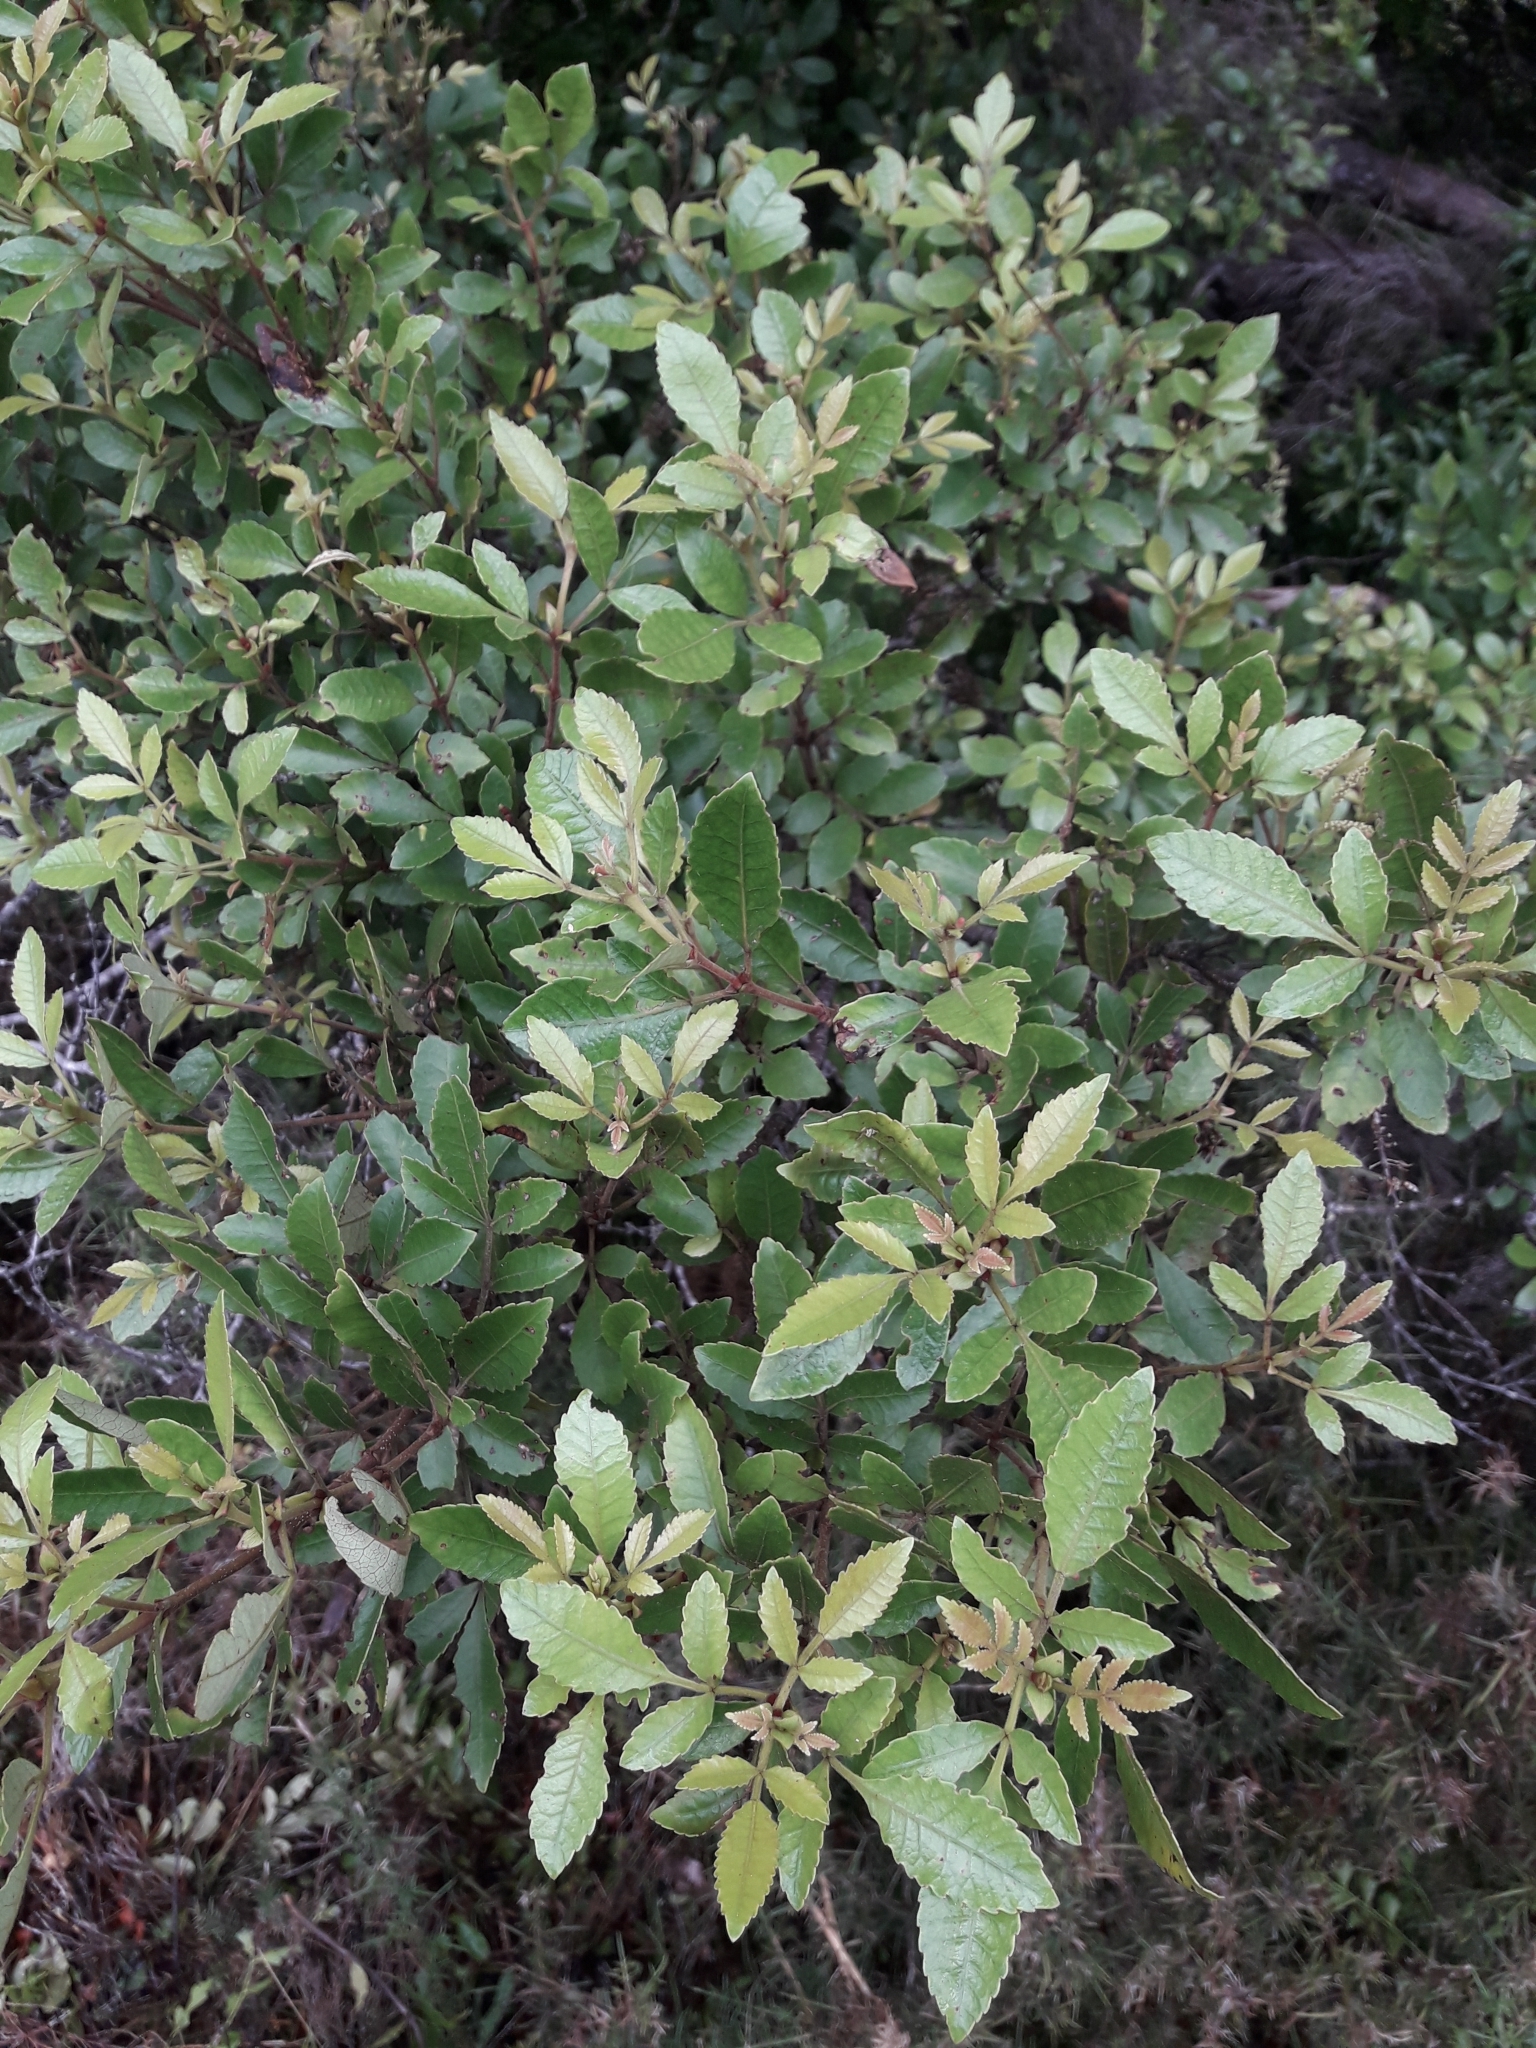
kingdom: Plantae
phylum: Tracheophyta
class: Magnoliopsida
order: Oxalidales
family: Cunoniaceae
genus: Pterophylla
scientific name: Pterophylla sylvicola
